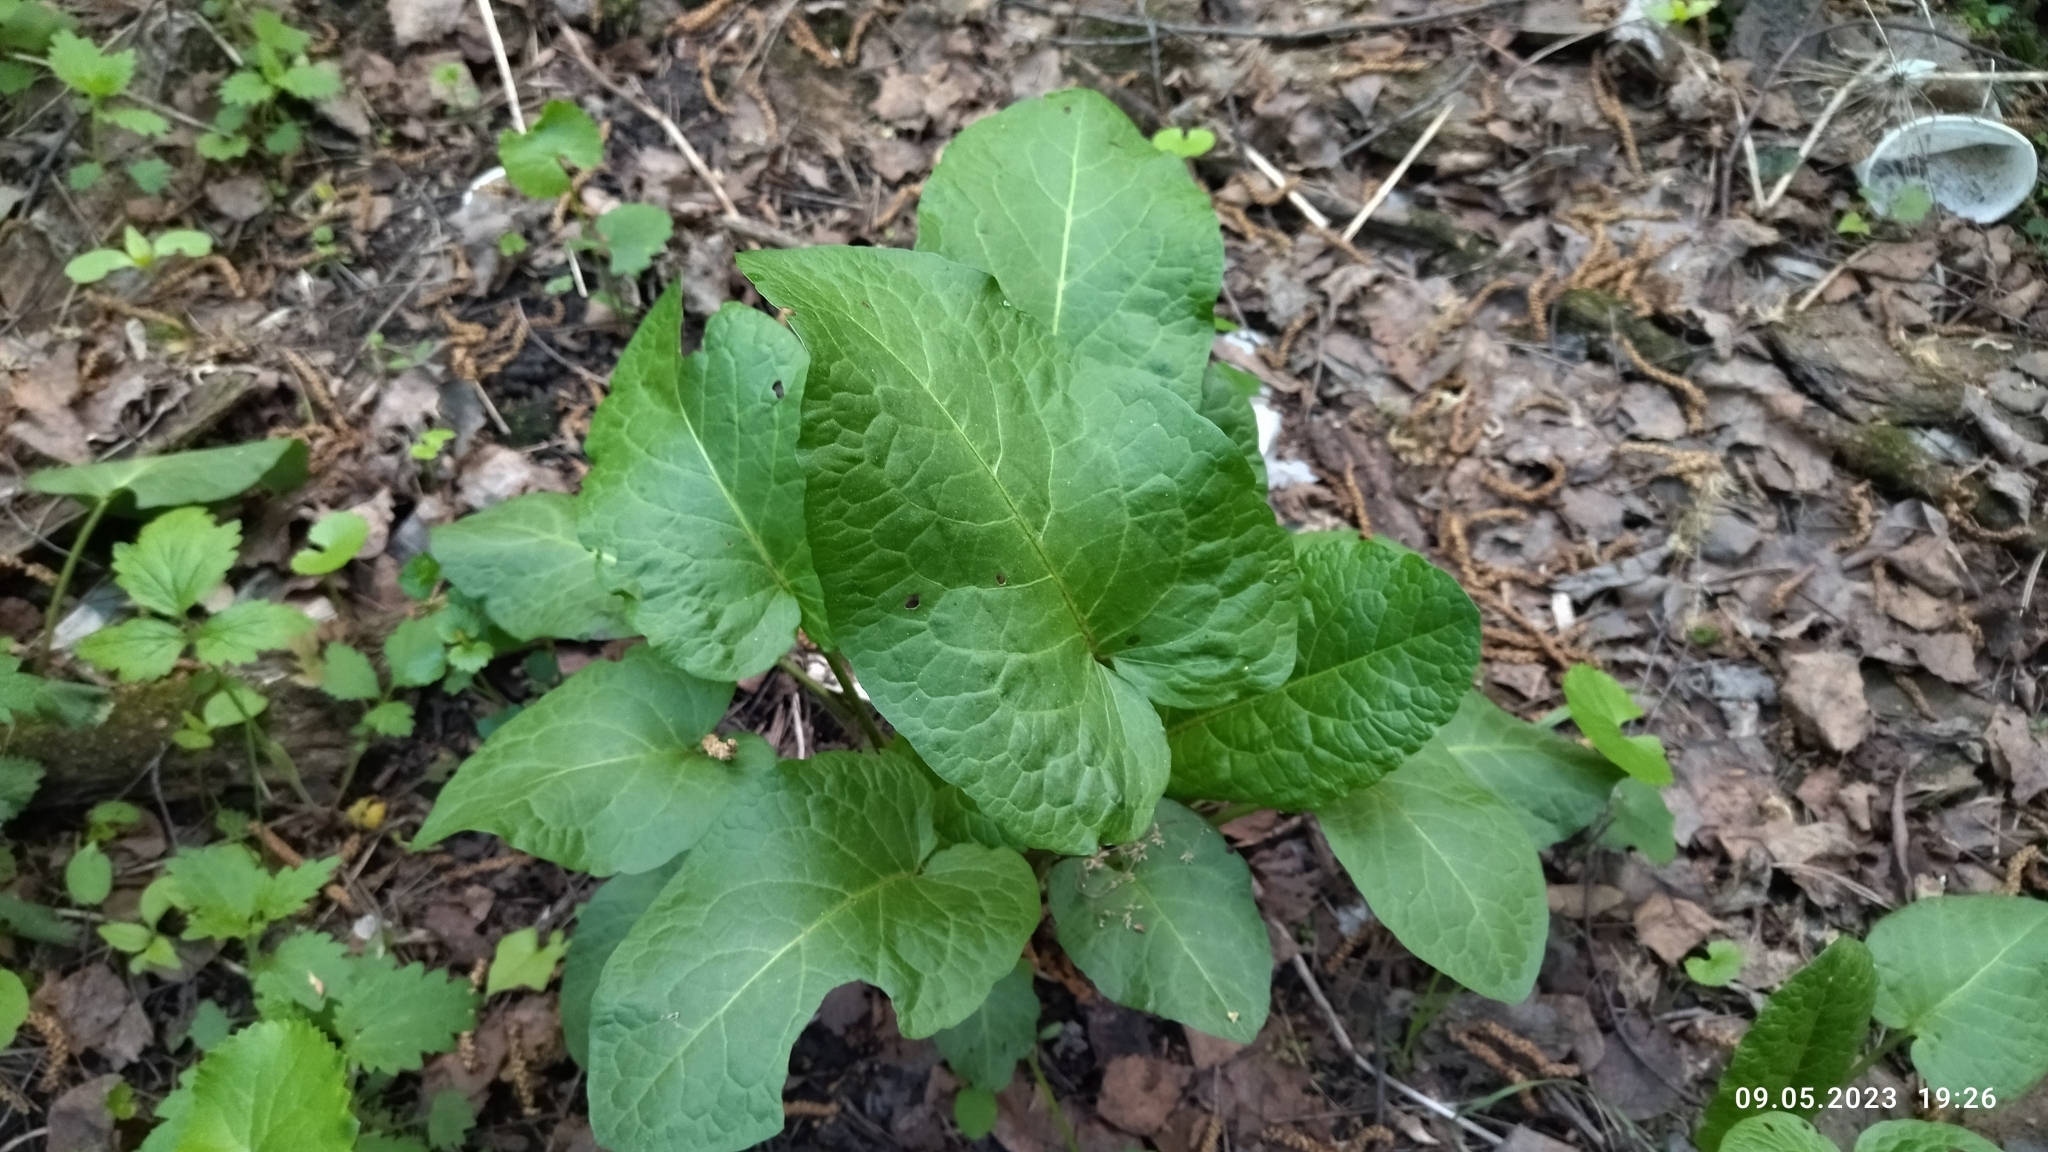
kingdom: Plantae
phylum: Tracheophyta
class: Magnoliopsida
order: Caryophyllales
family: Polygonaceae
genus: Rumex
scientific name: Rumex obtusifolius
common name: Bitter dock
